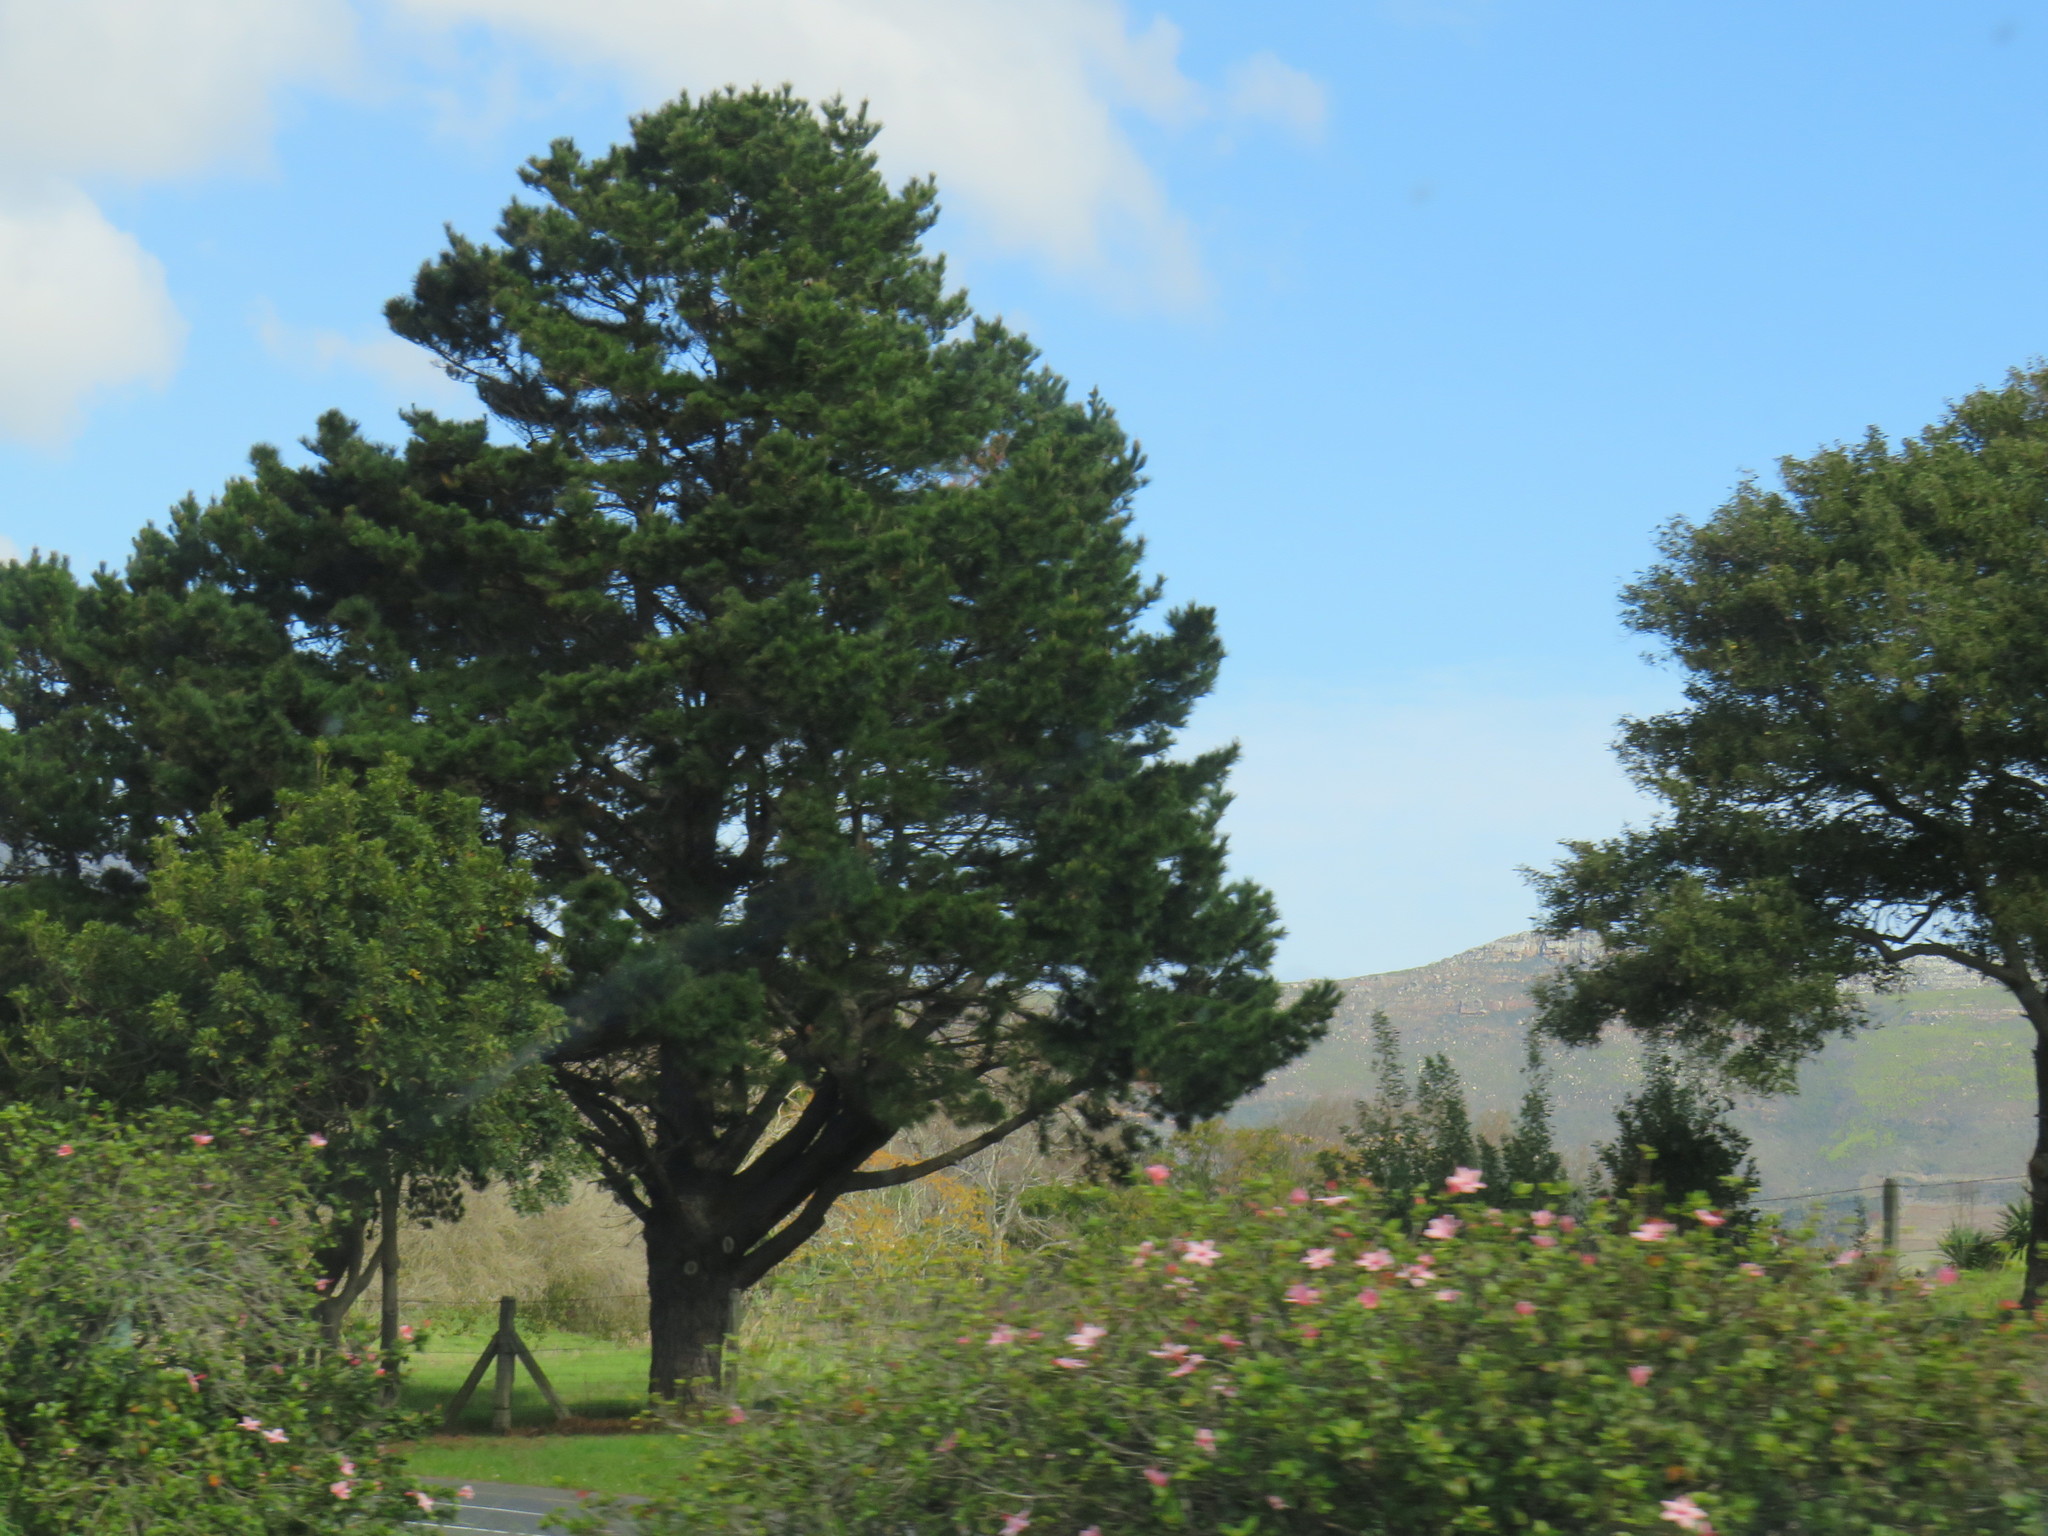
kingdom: Plantae
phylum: Tracheophyta
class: Pinopsida
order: Pinales
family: Pinaceae
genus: Pinus
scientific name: Pinus radiata
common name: Monterey pine
